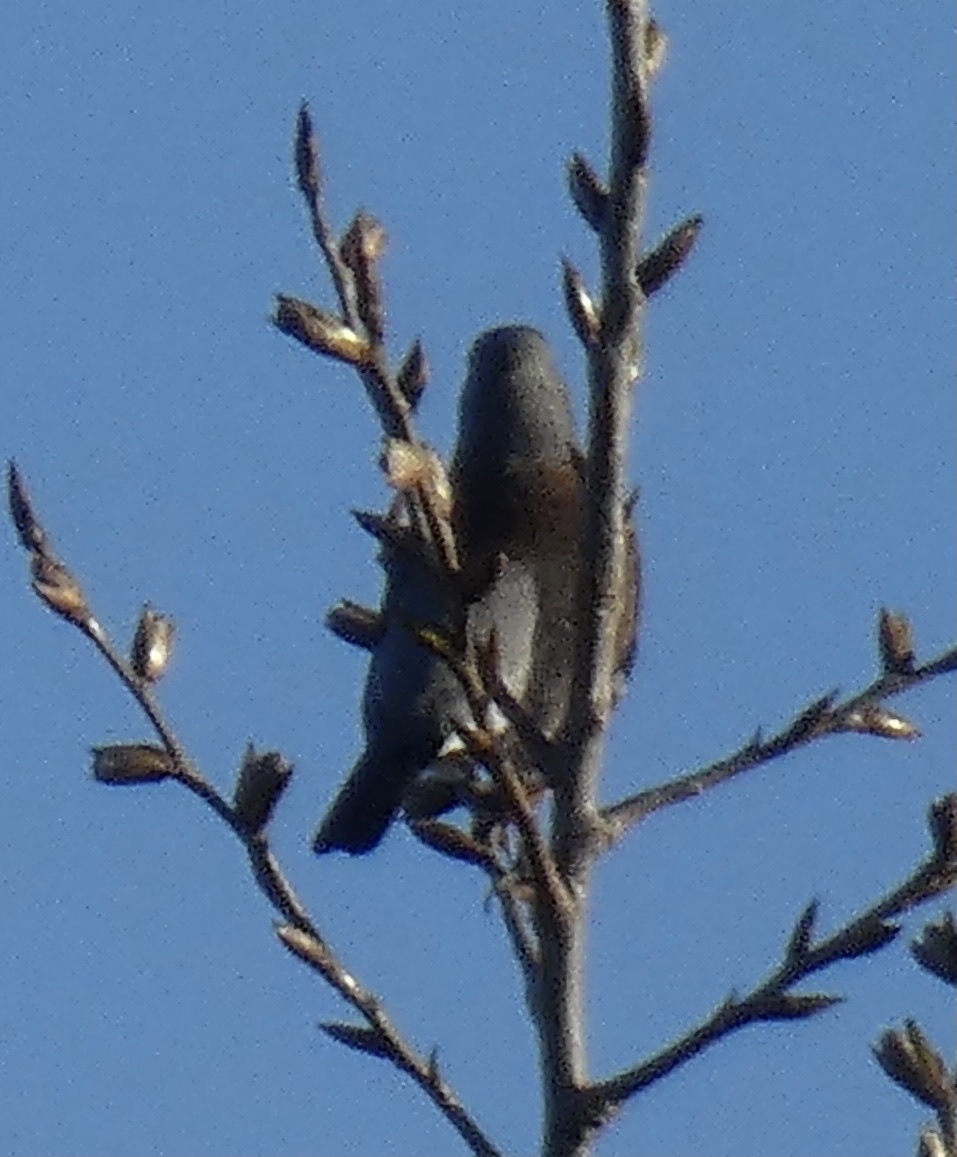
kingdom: Animalia
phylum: Chordata
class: Aves
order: Passeriformes
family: Turdidae
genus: Turdus
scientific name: Turdus pilaris
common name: Fieldfare
